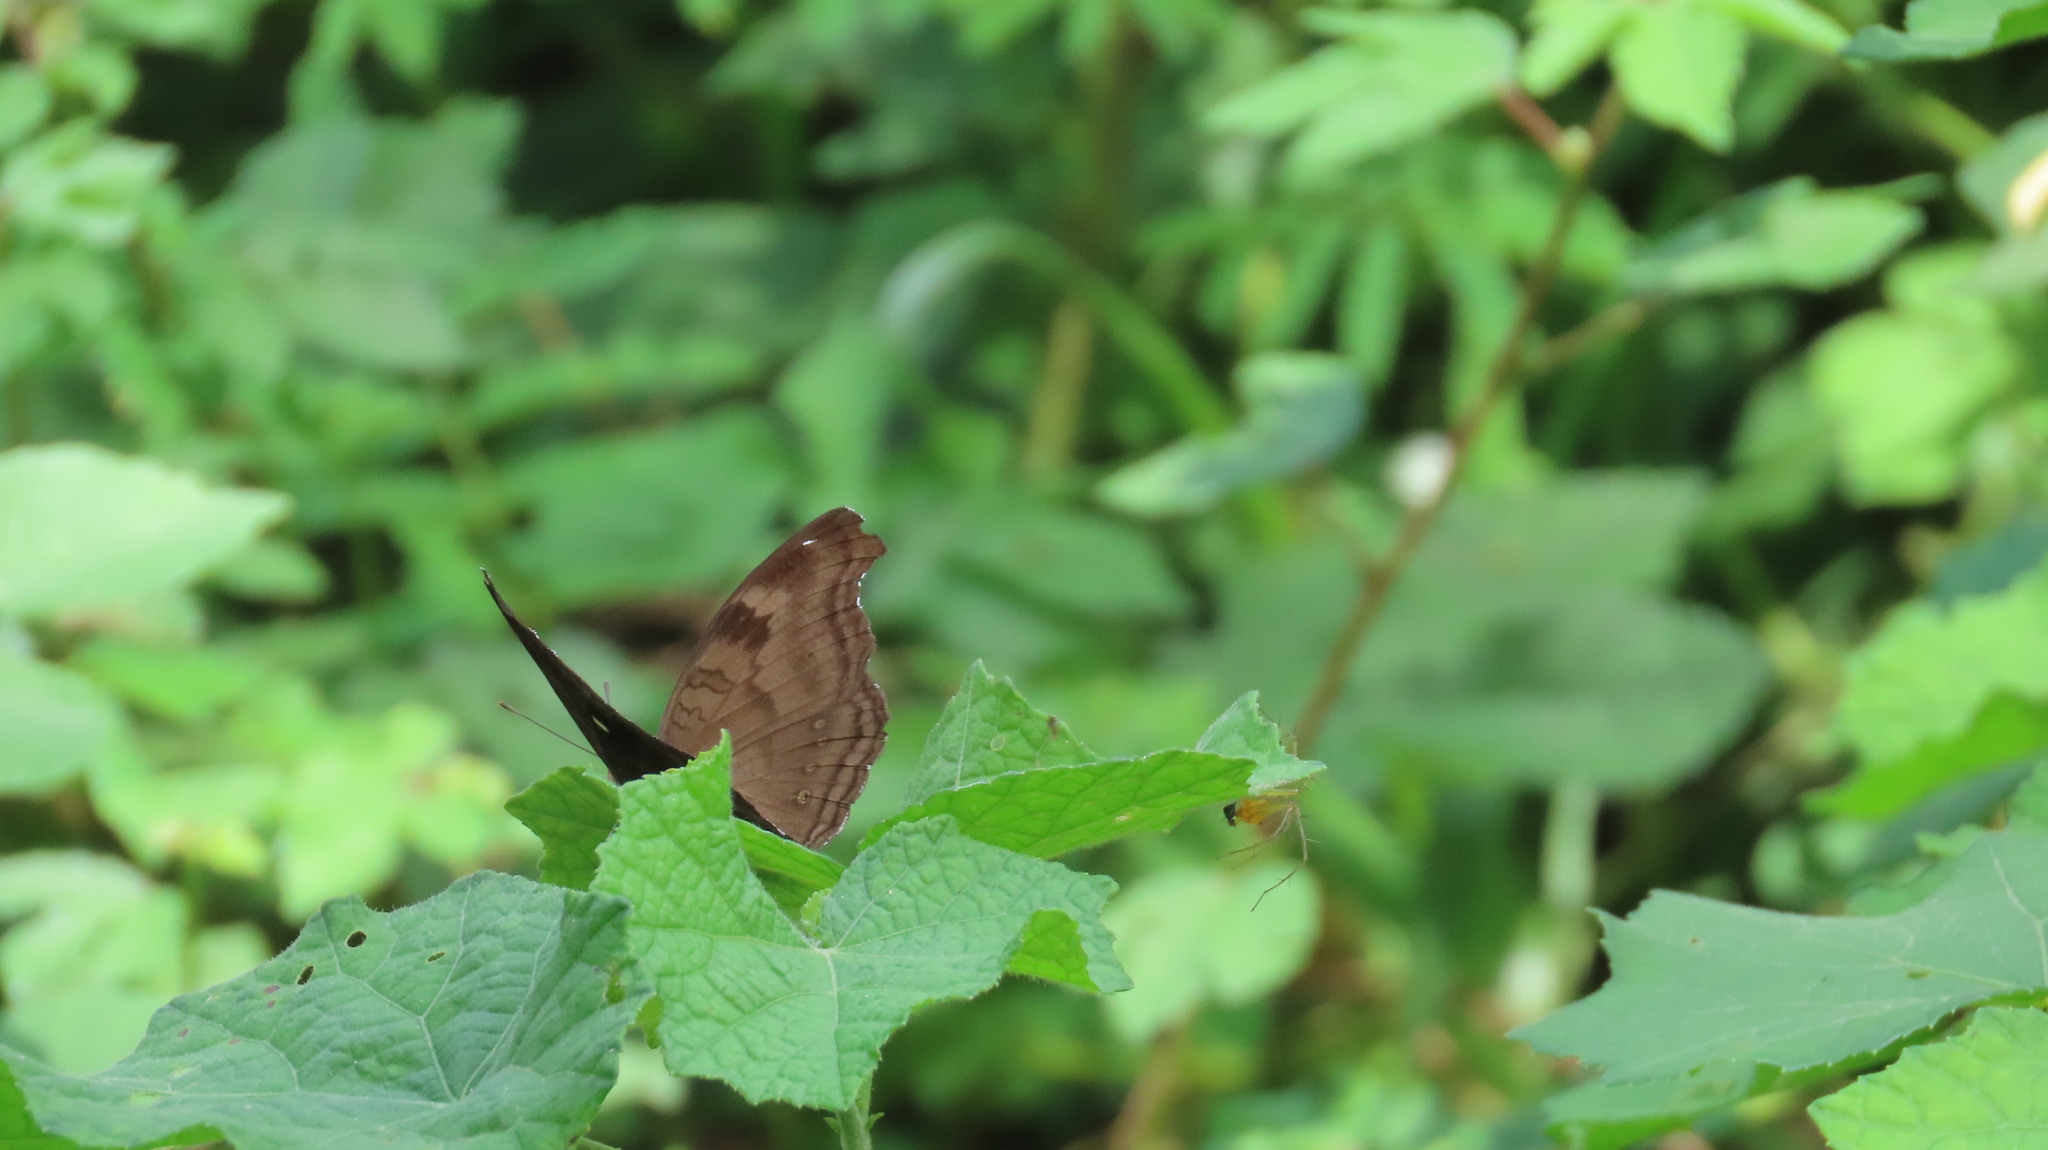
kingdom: Animalia
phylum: Arthropoda
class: Insecta
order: Lepidoptera
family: Nymphalidae
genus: Junonia
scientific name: Junonia iphita
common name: Chocolate pansy
